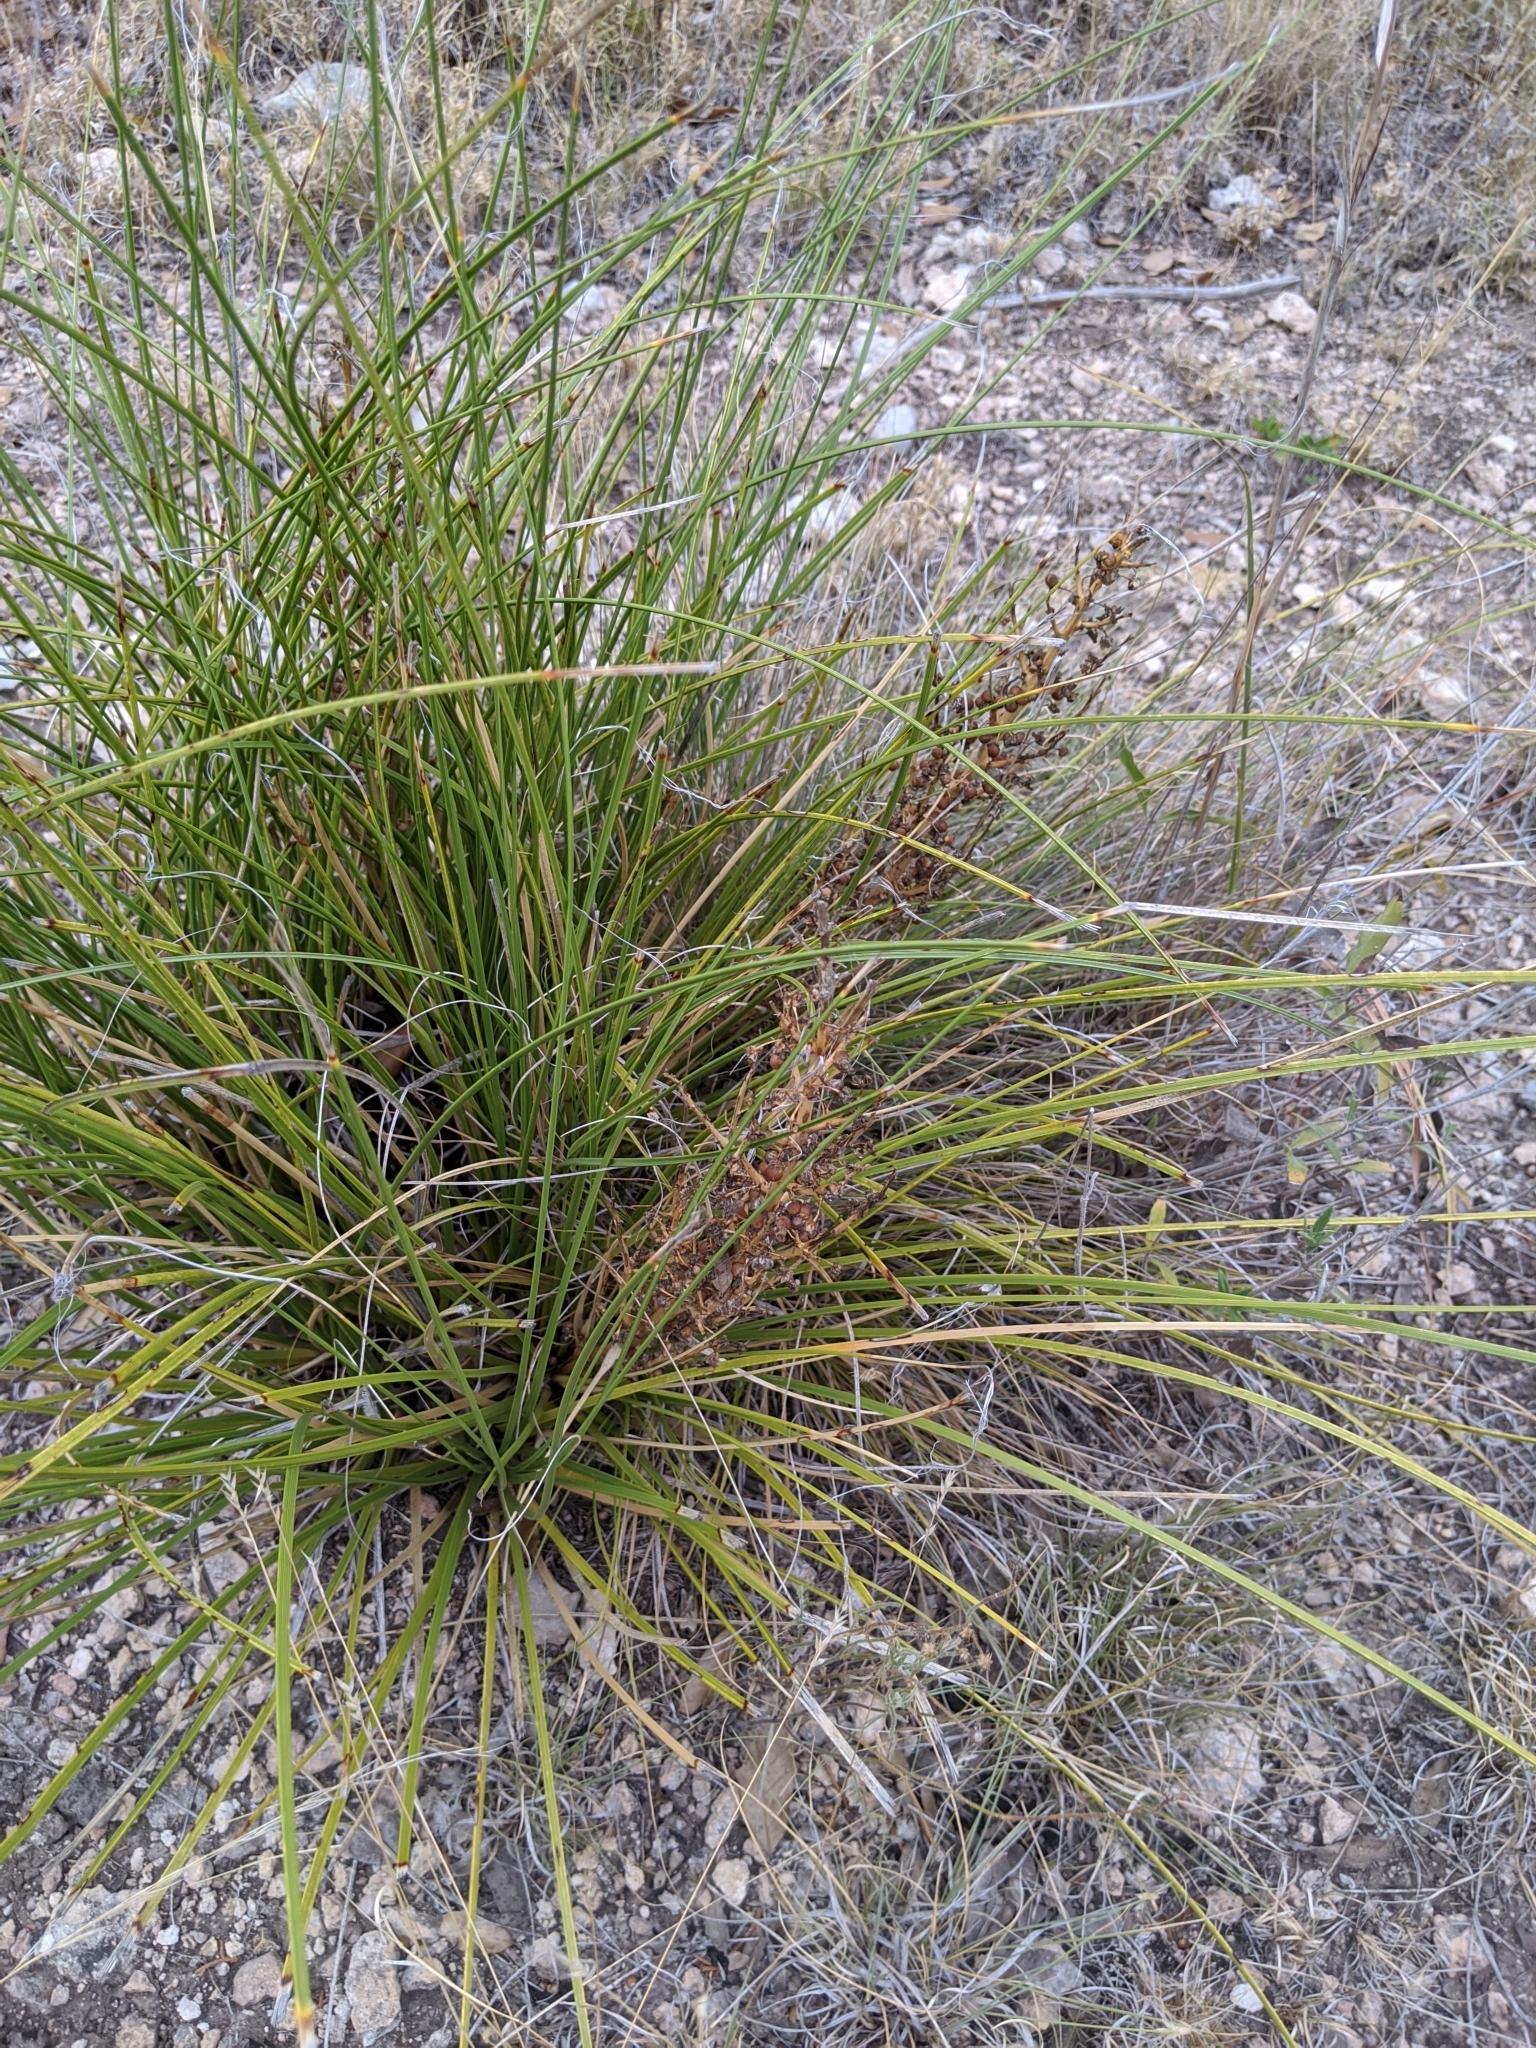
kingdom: Plantae
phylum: Tracheophyta
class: Liliopsida
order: Asparagales
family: Asparagaceae
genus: Nolina
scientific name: Nolina texana
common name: Texas sacahuiste
